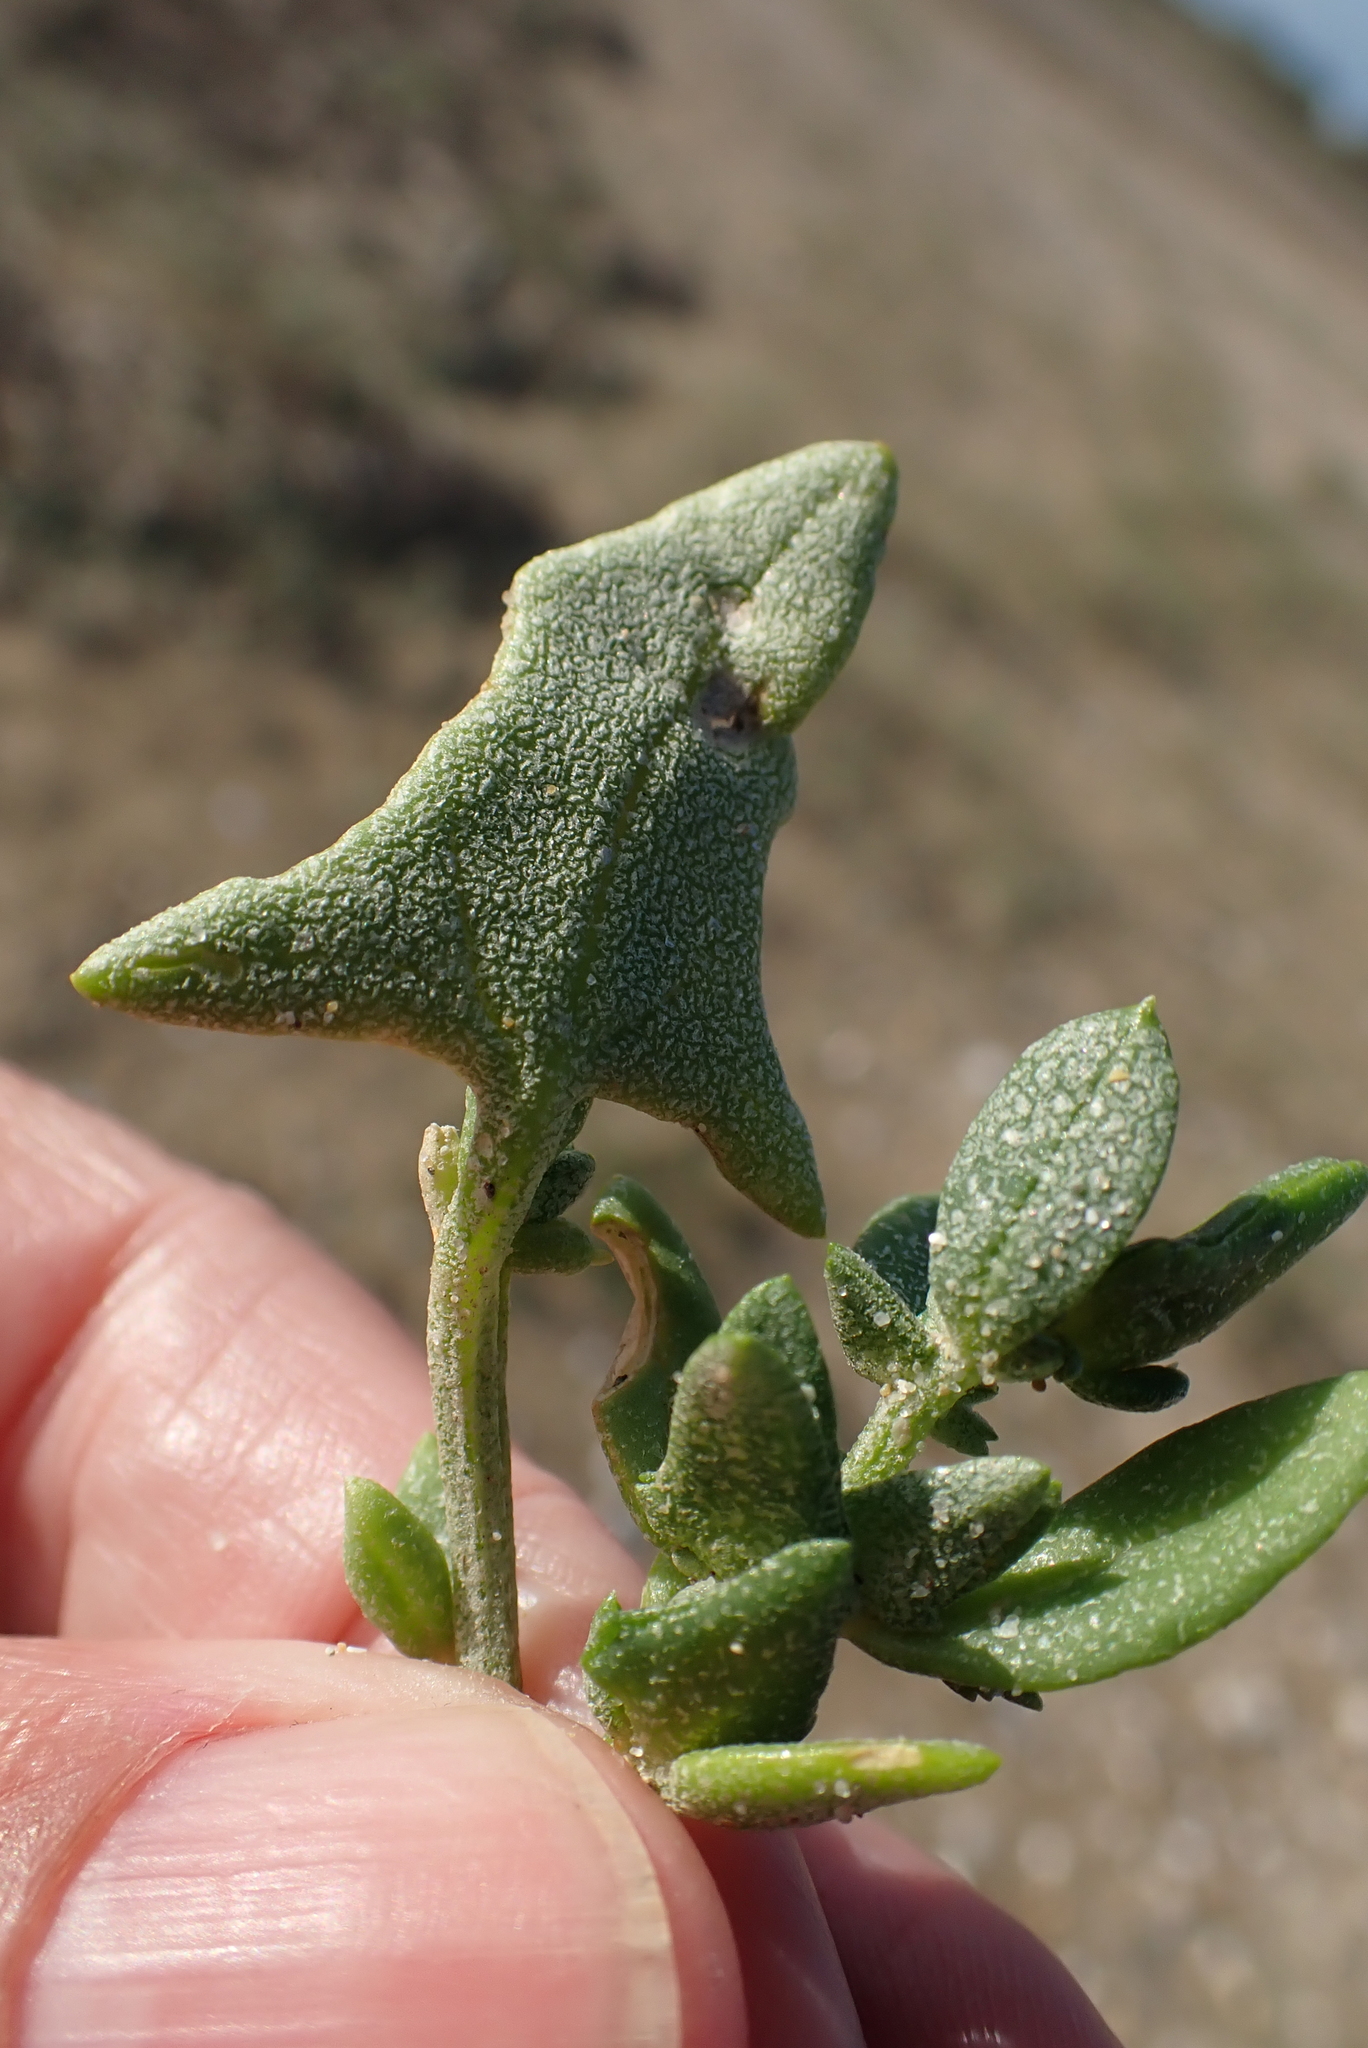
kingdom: Plantae
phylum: Tracheophyta
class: Magnoliopsida
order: Caryophyllales
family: Amaranthaceae
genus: Atriplex
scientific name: Atriplex prostrata
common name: Spear-leaved orache
